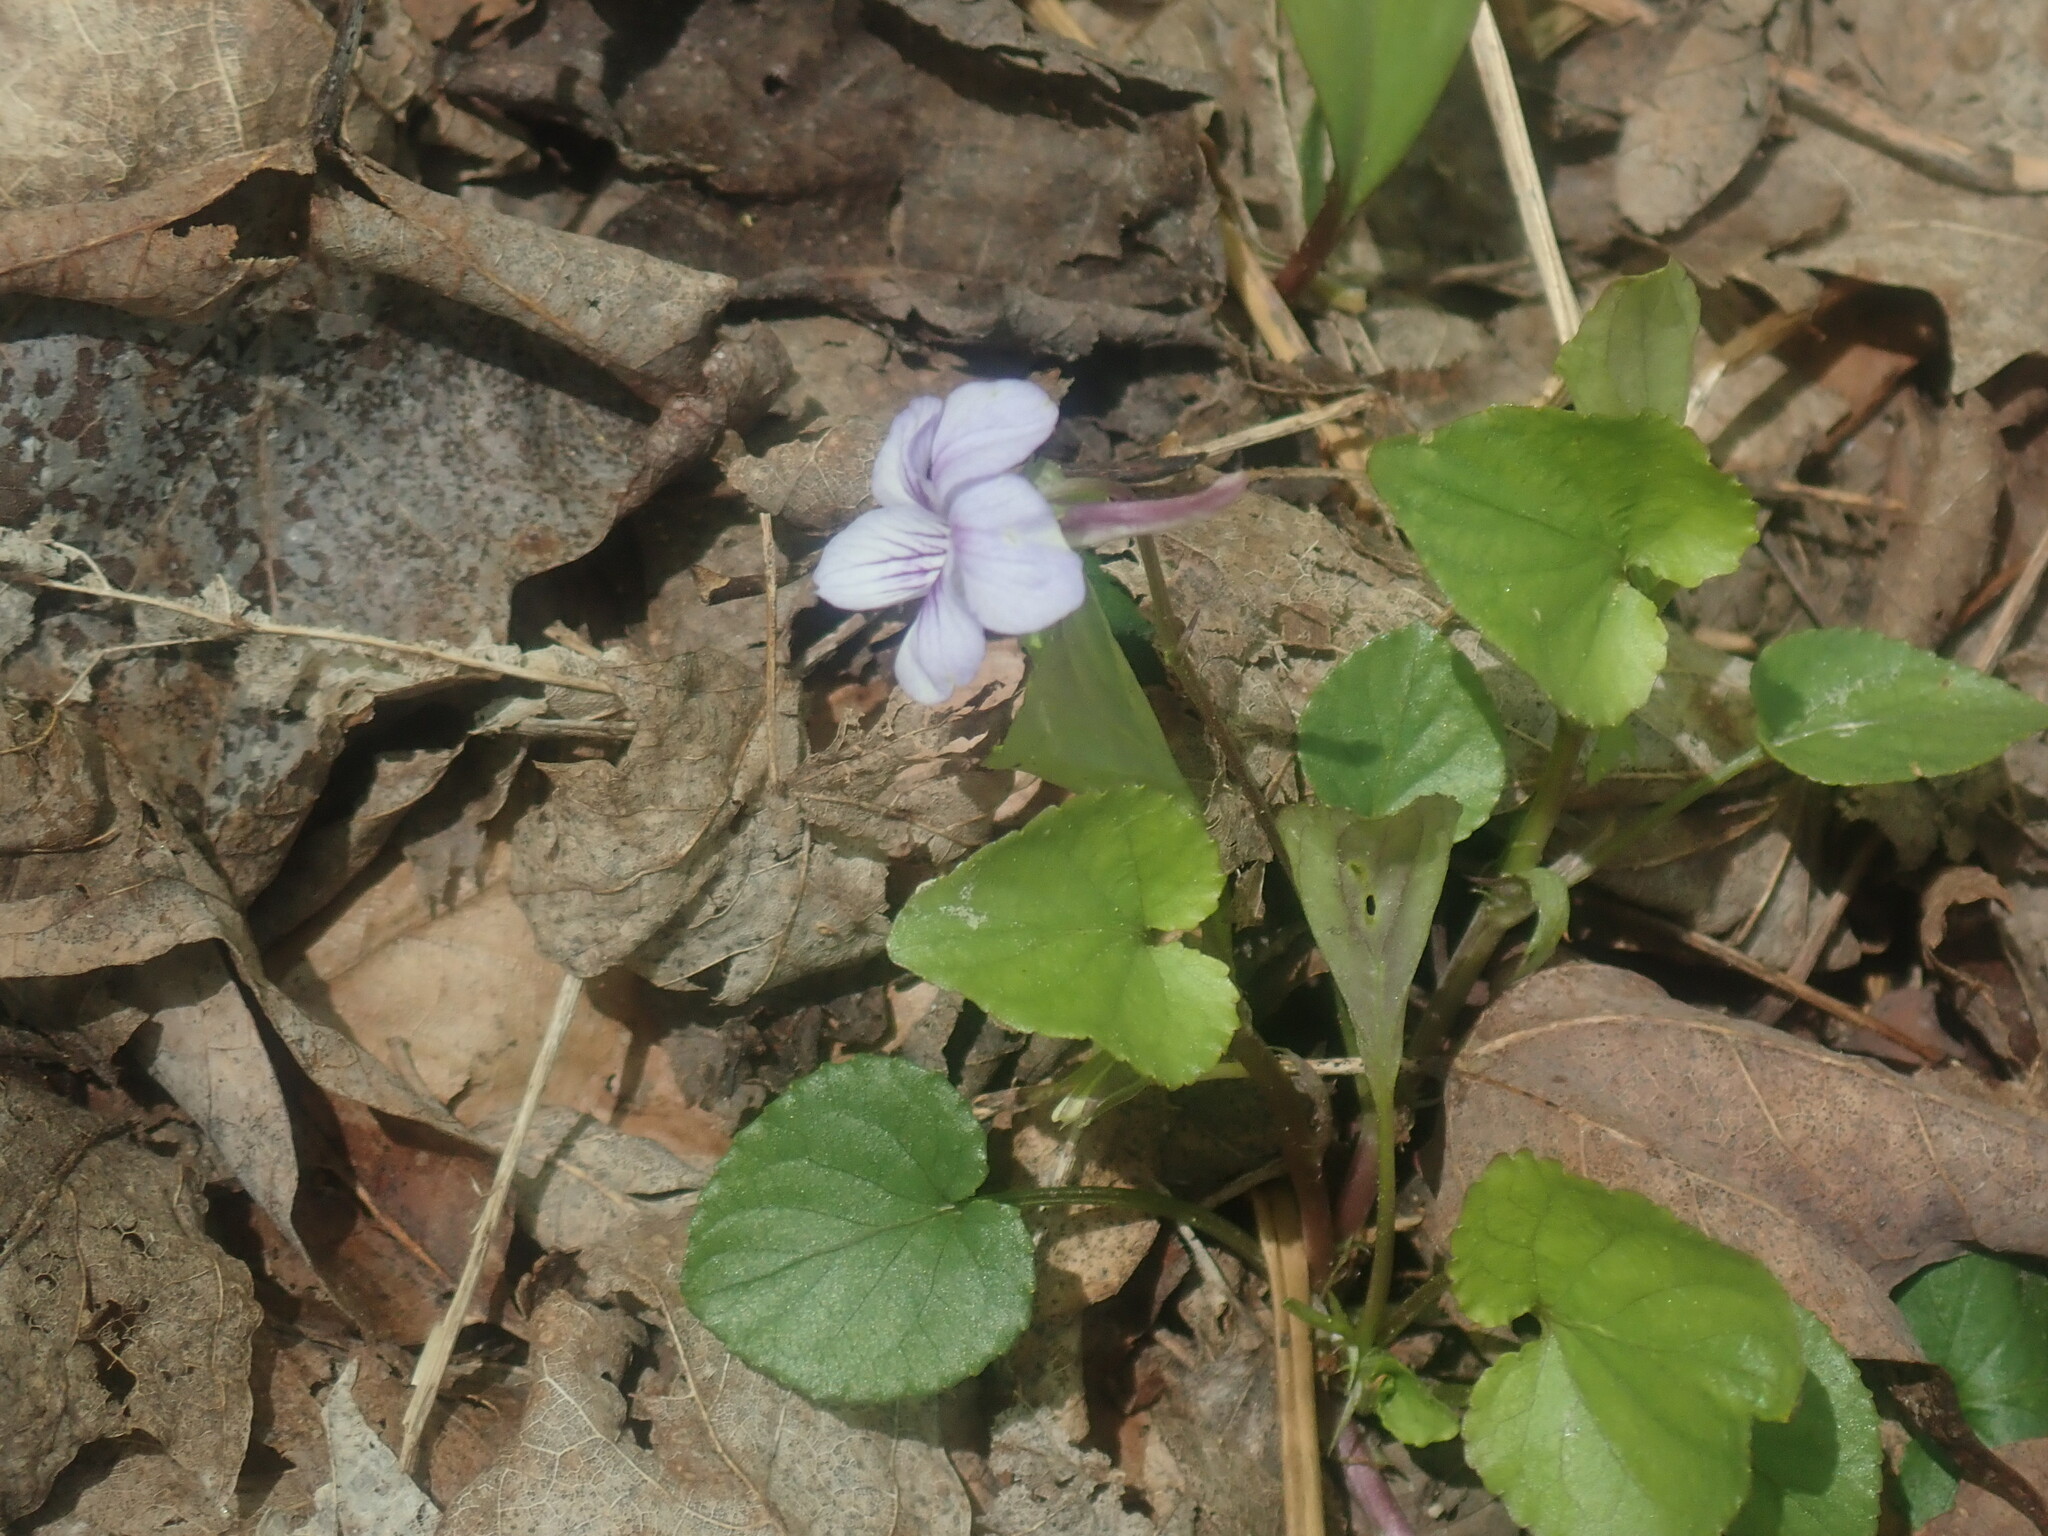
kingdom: Plantae
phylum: Tracheophyta
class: Magnoliopsida
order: Malpighiales
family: Violaceae
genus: Viola
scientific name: Viola rostrata
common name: Long-spur violet
